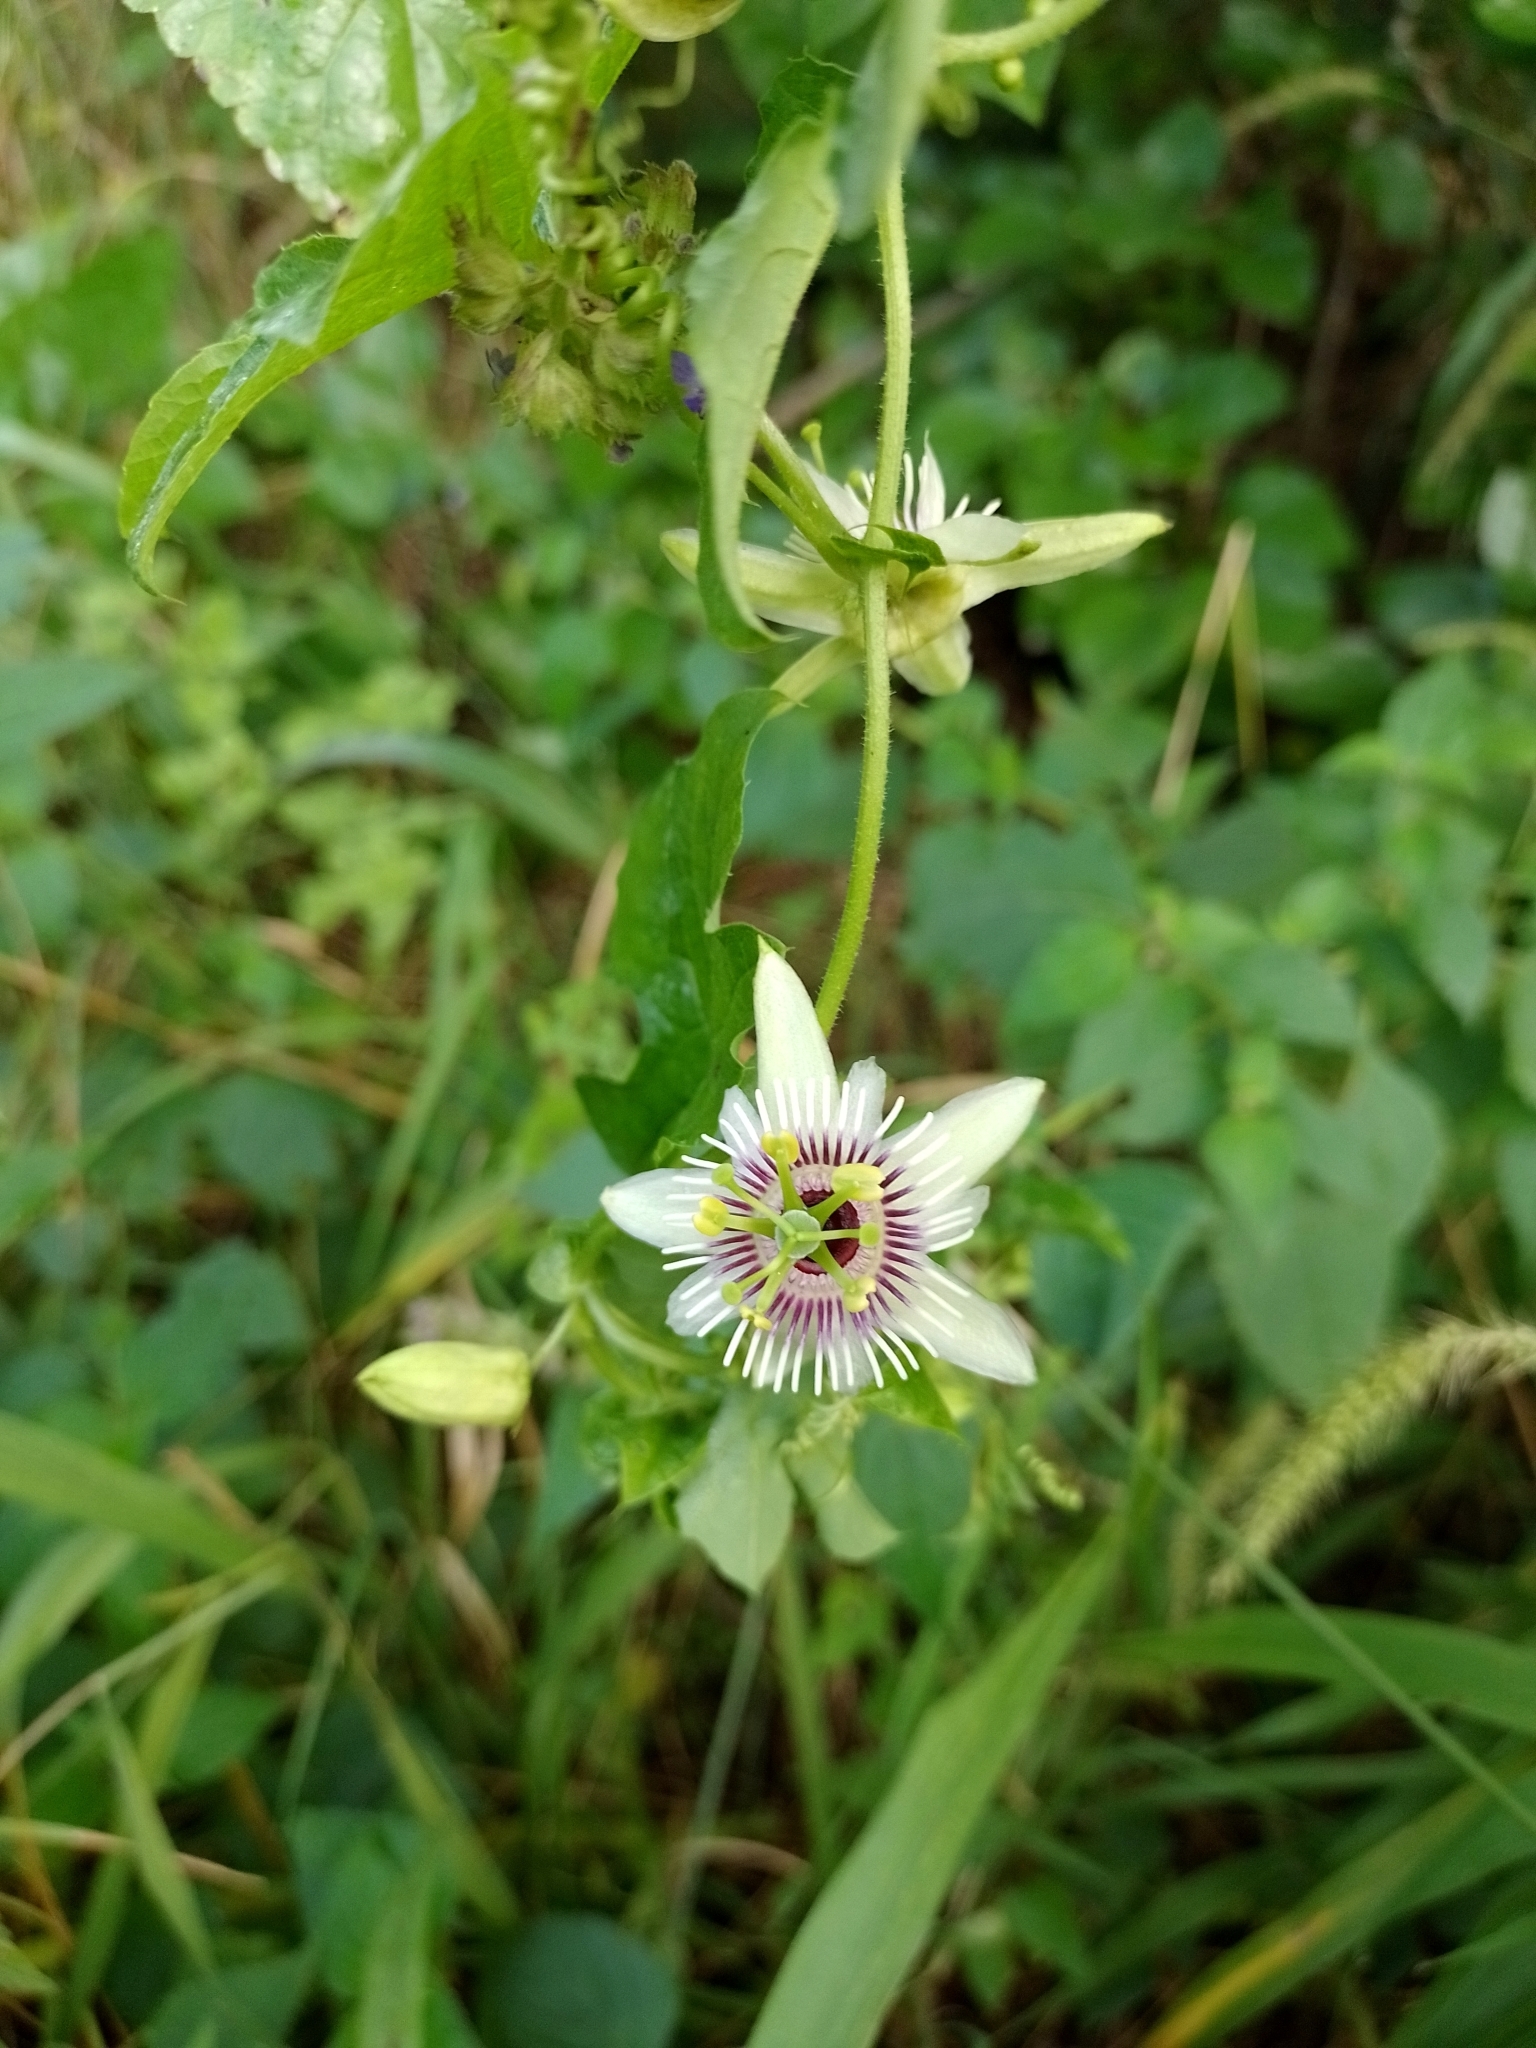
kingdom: Plantae
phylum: Tracheophyta
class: Magnoliopsida
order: Malpighiales
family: Passifloraceae
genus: Passiflora
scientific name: Passiflora morifolia
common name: Woodland passionflower
